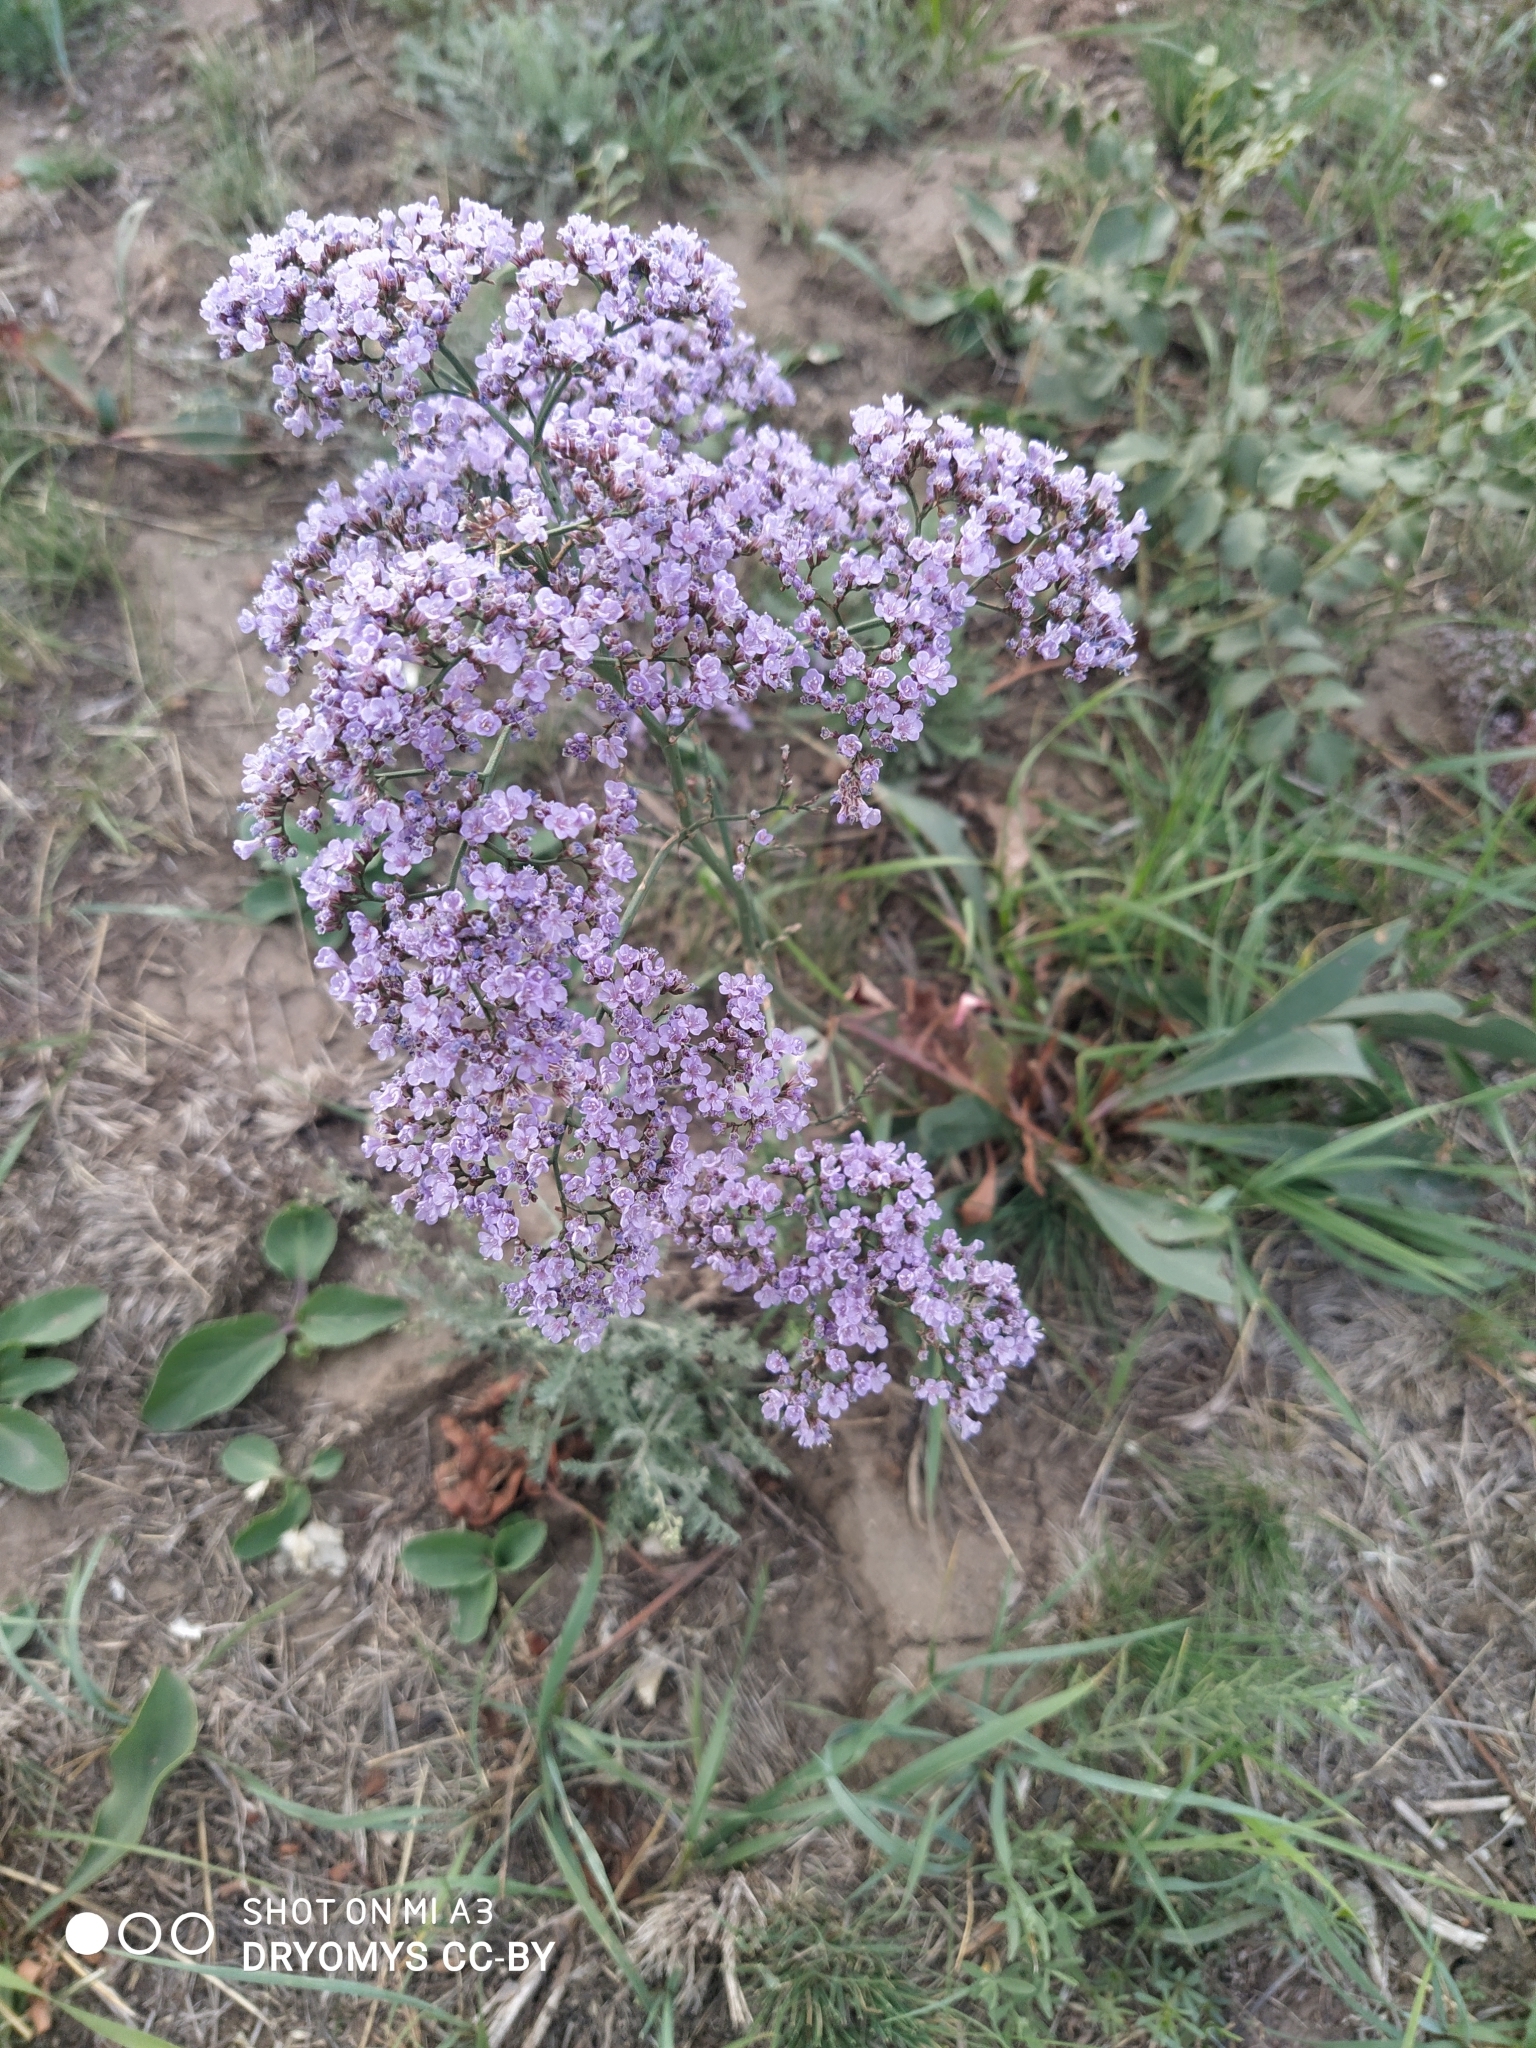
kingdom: Plantae
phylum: Tracheophyta
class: Magnoliopsida
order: Caryophyllales
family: Plumbaginaceae
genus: Limonium
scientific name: Limonium gmelini
